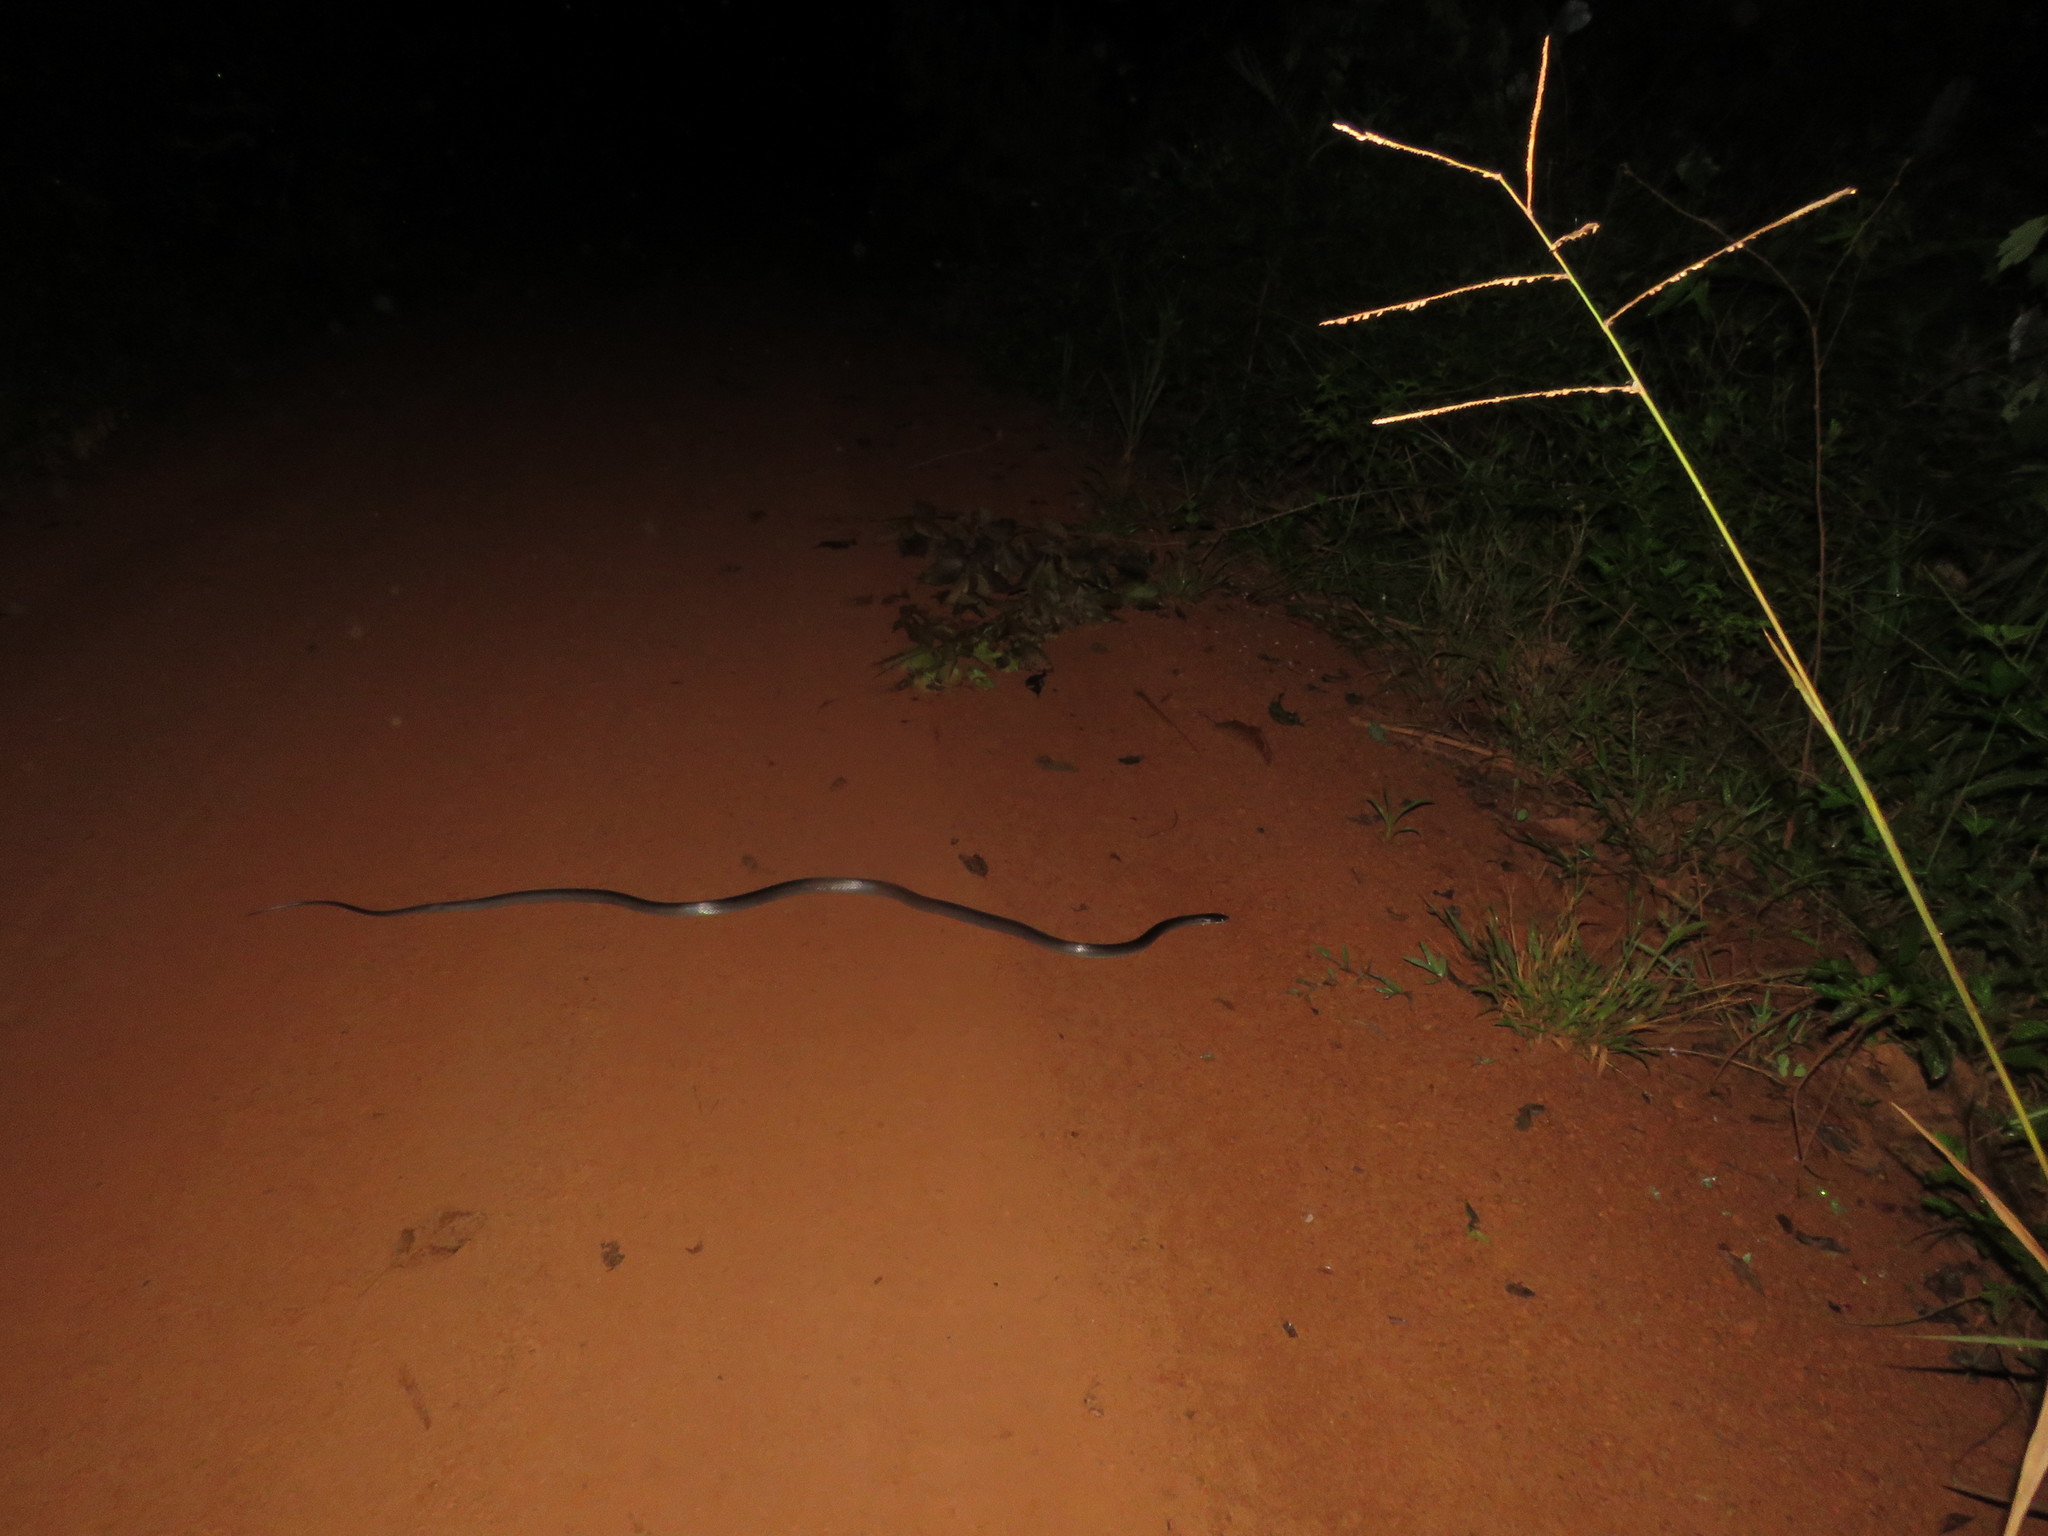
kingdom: Animalia
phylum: Chordata
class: Squamata
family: Colubridae
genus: Clelia
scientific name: Clelia clelia
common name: Mussurana
